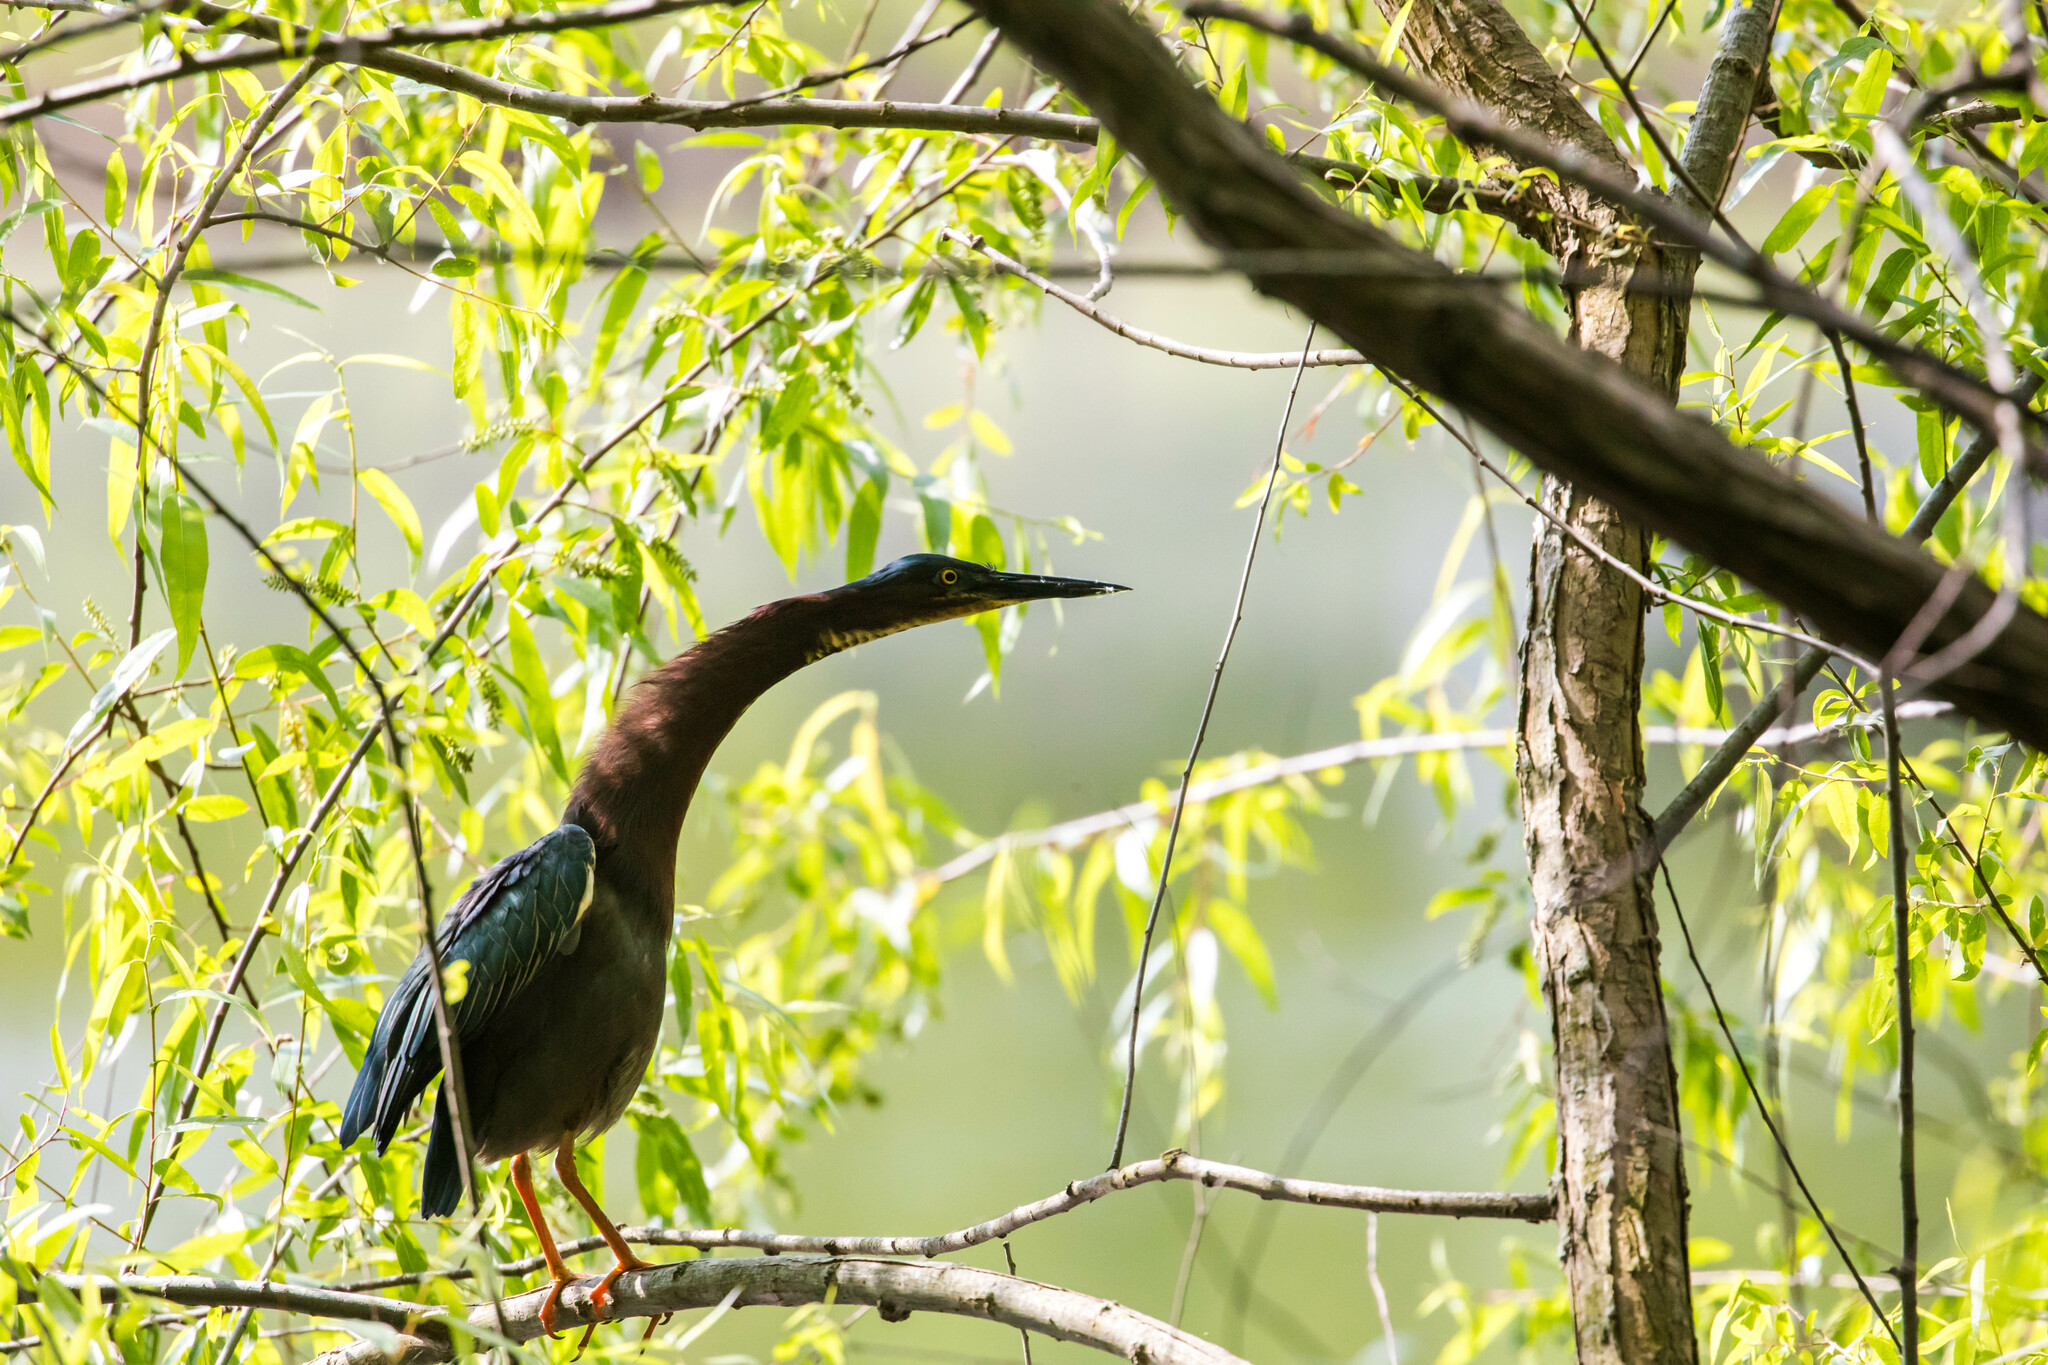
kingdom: Animalia
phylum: Chordata
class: Aves
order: Pelecaniformes
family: Ardeidae
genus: Butorides
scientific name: Butorides virescens
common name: Green heron
